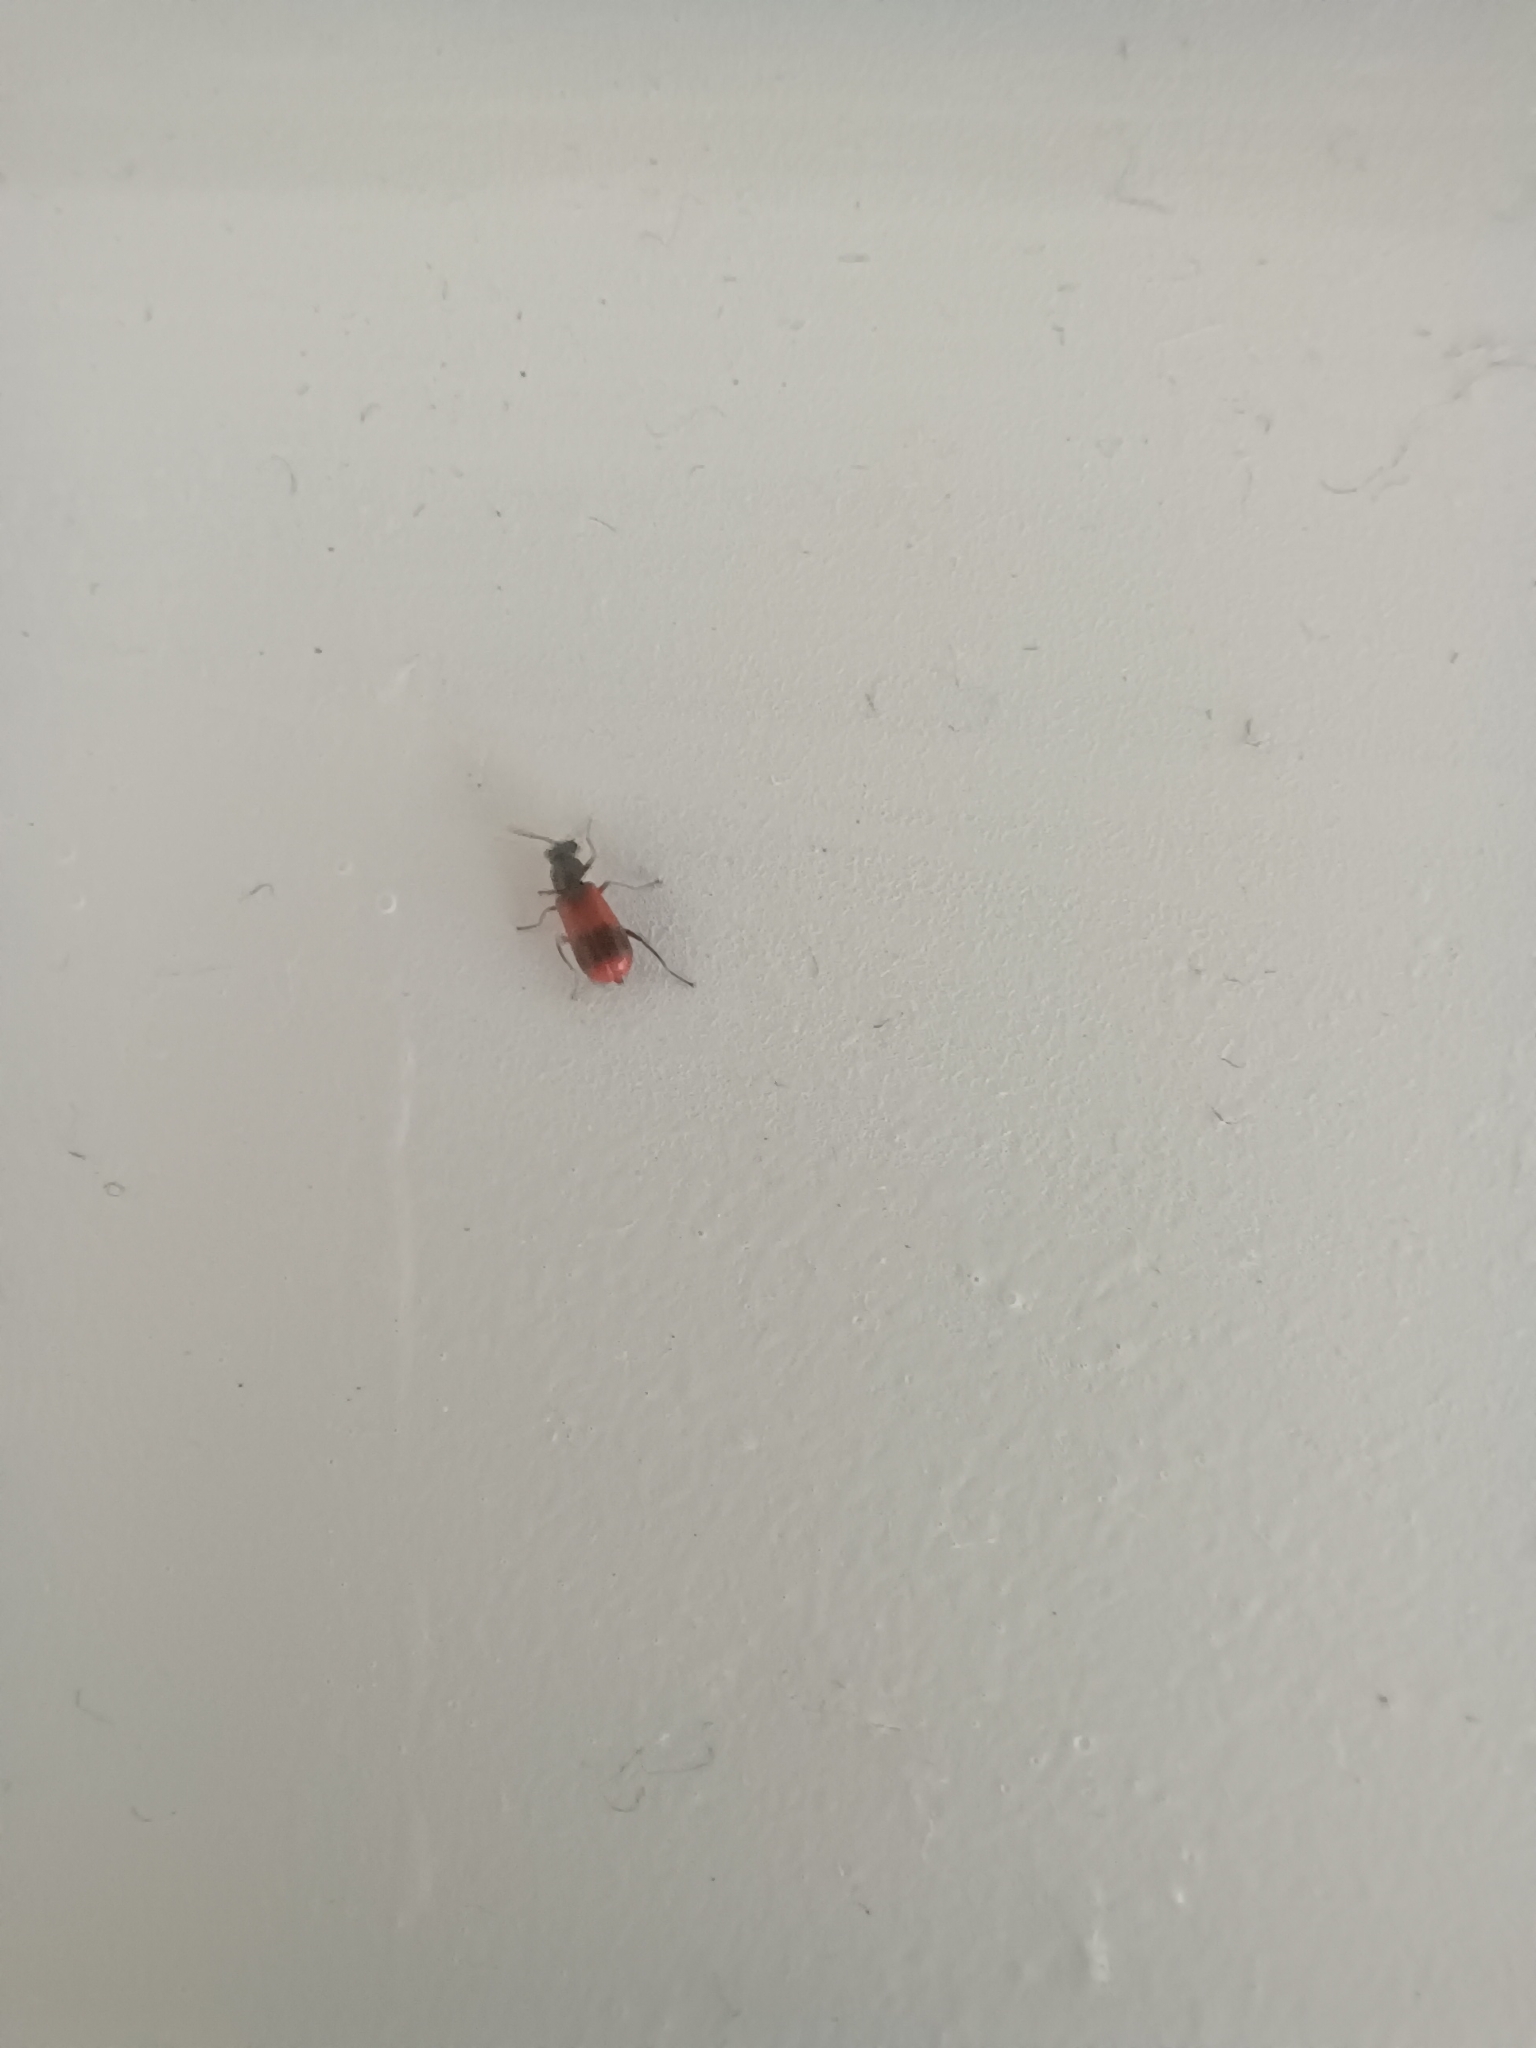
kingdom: Animalia
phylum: Arthropoda
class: Insecta
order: Coleoptera
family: Melyridae
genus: Anthocomus
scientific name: Anthocomus equestris
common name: Black-banded soft-winged flower beetle
